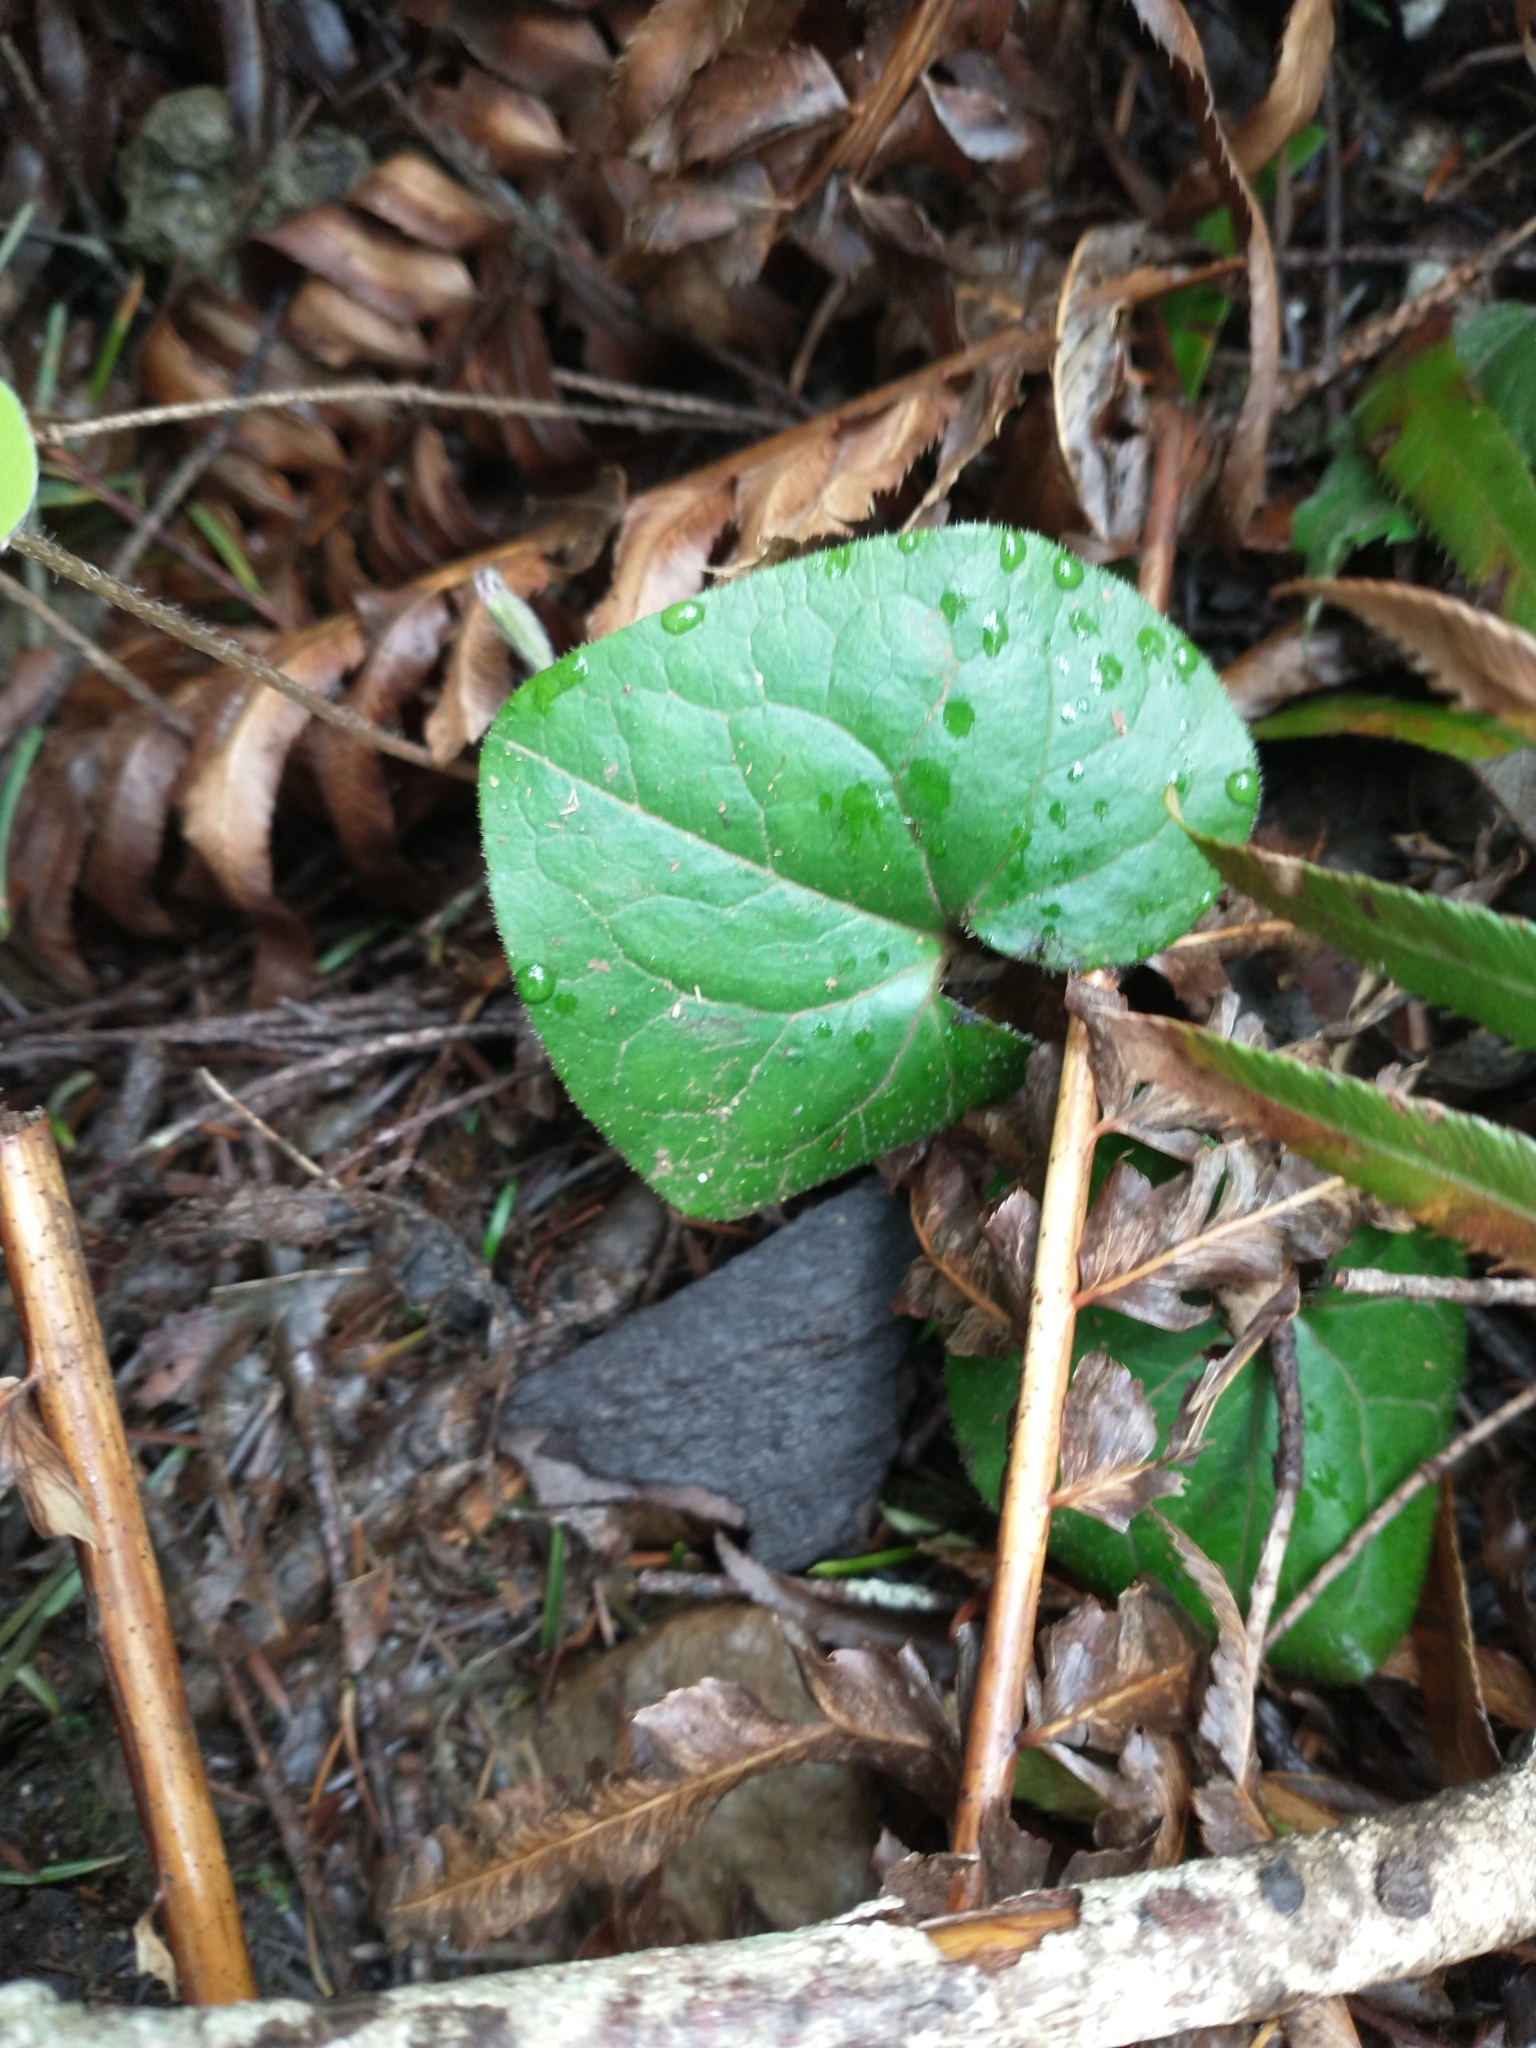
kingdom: Plantae
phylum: Tracheophyta
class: Magnoliopsida
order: Piperales
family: Aristolochiaceae
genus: Asarum
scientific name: Asarum caudatum
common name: Wild ginger
